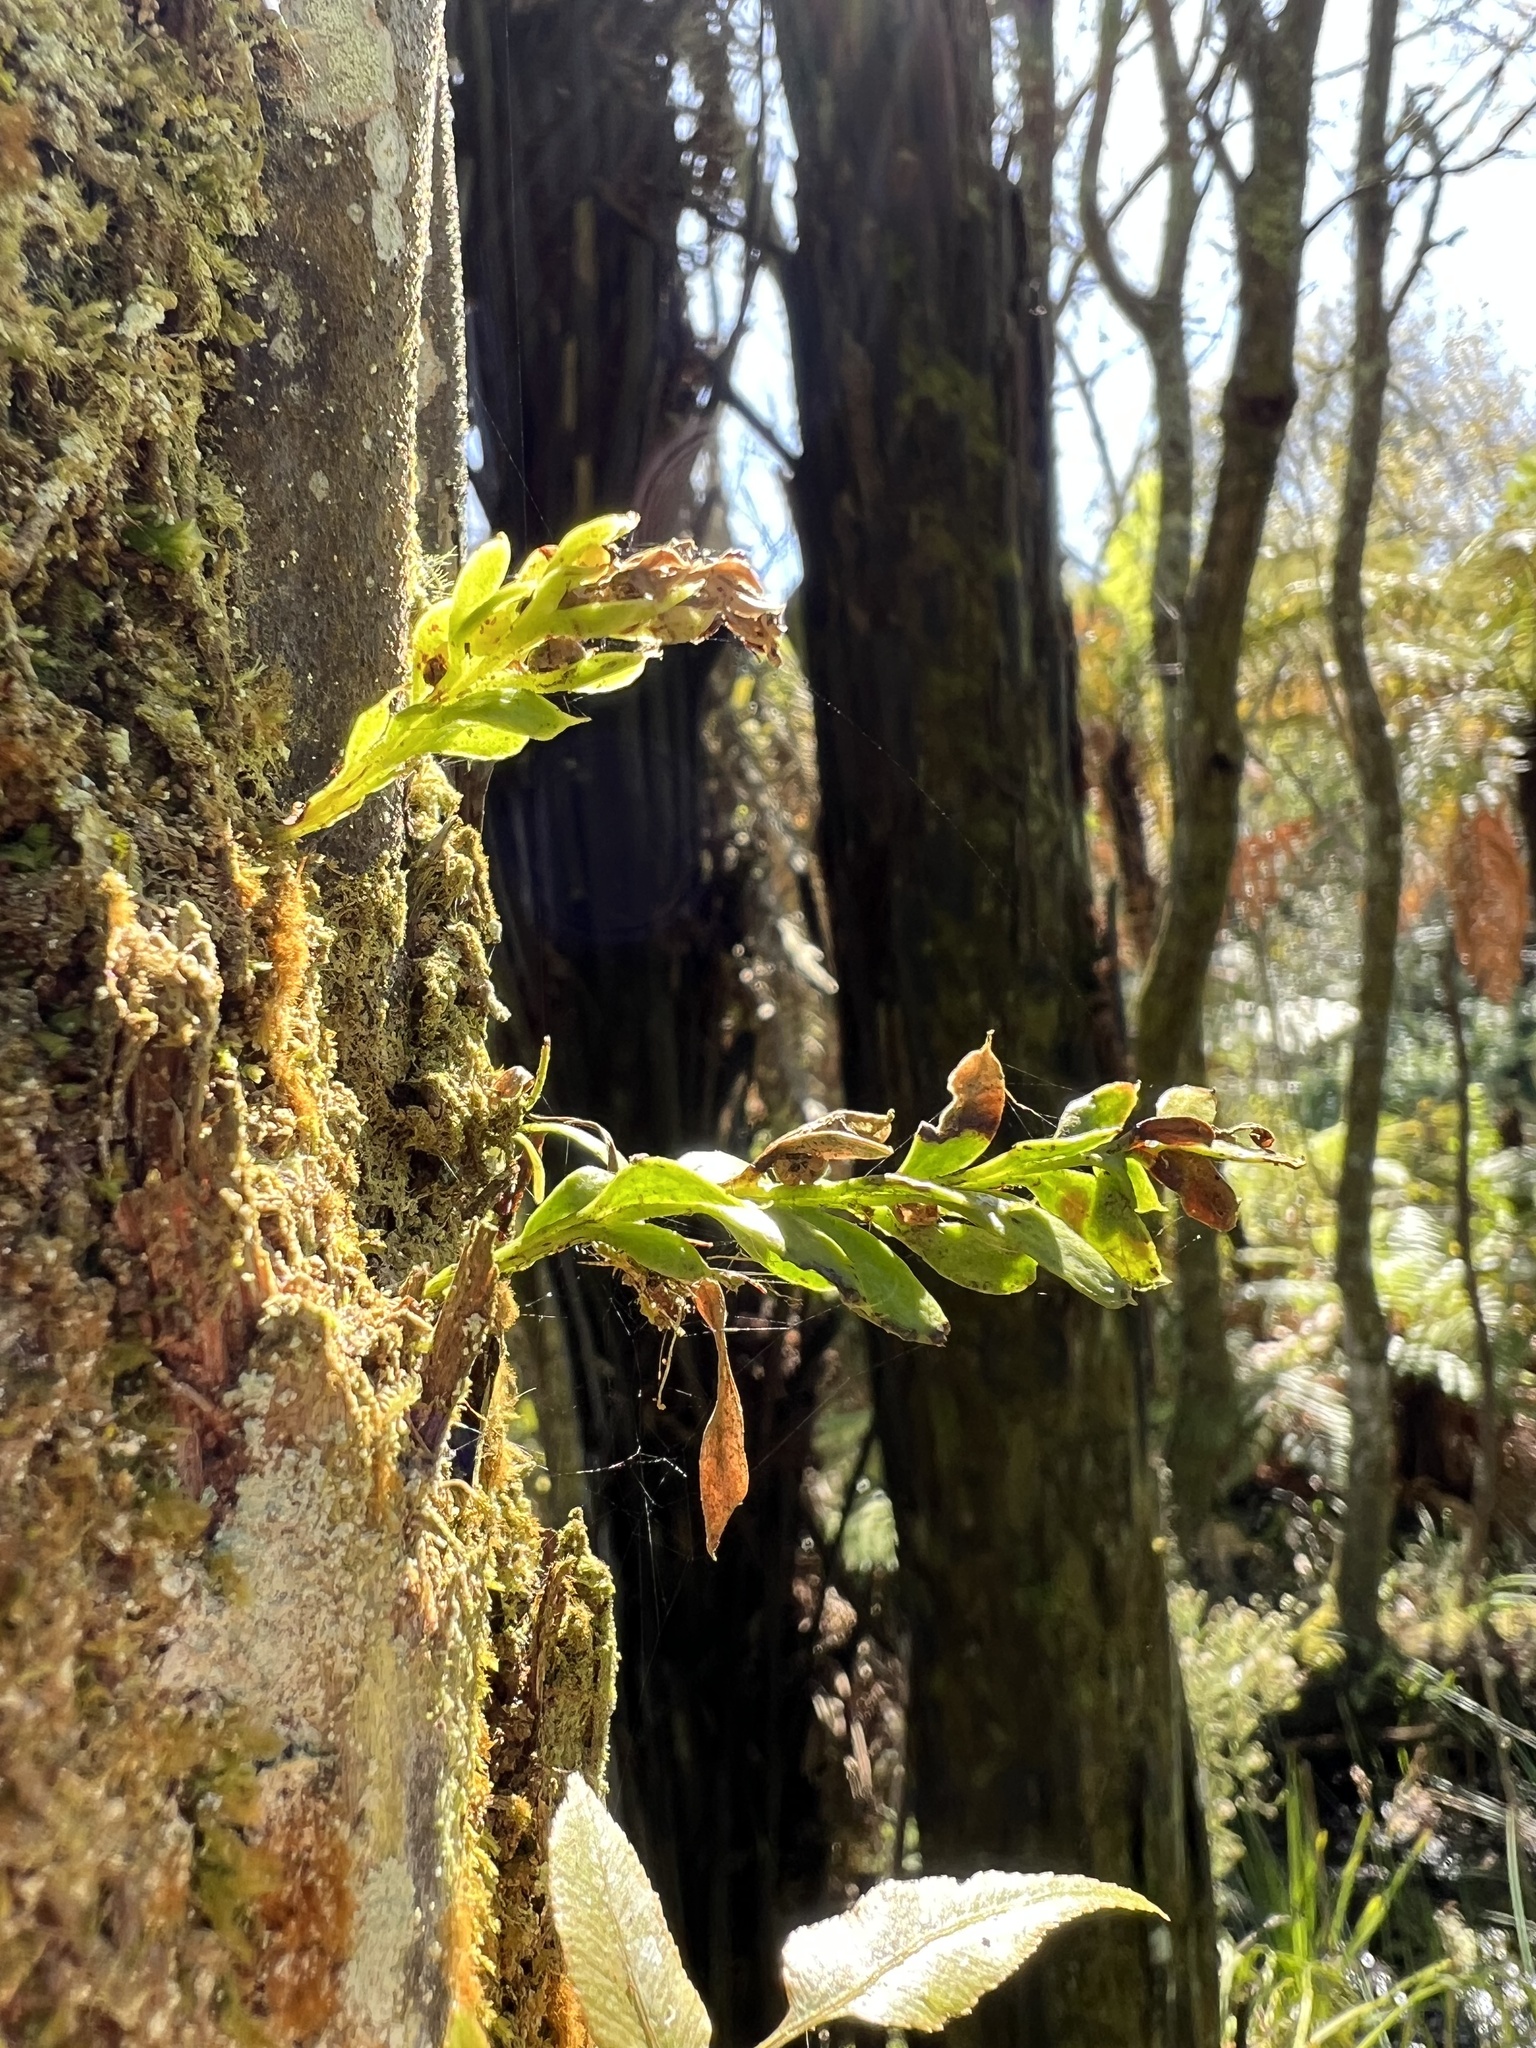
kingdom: Plantae
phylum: Tracheophyta
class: Polypodiopsida
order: Psilotales
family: Psilotaceae
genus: Tmesipteris
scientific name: Tmesipteris lanceolata
